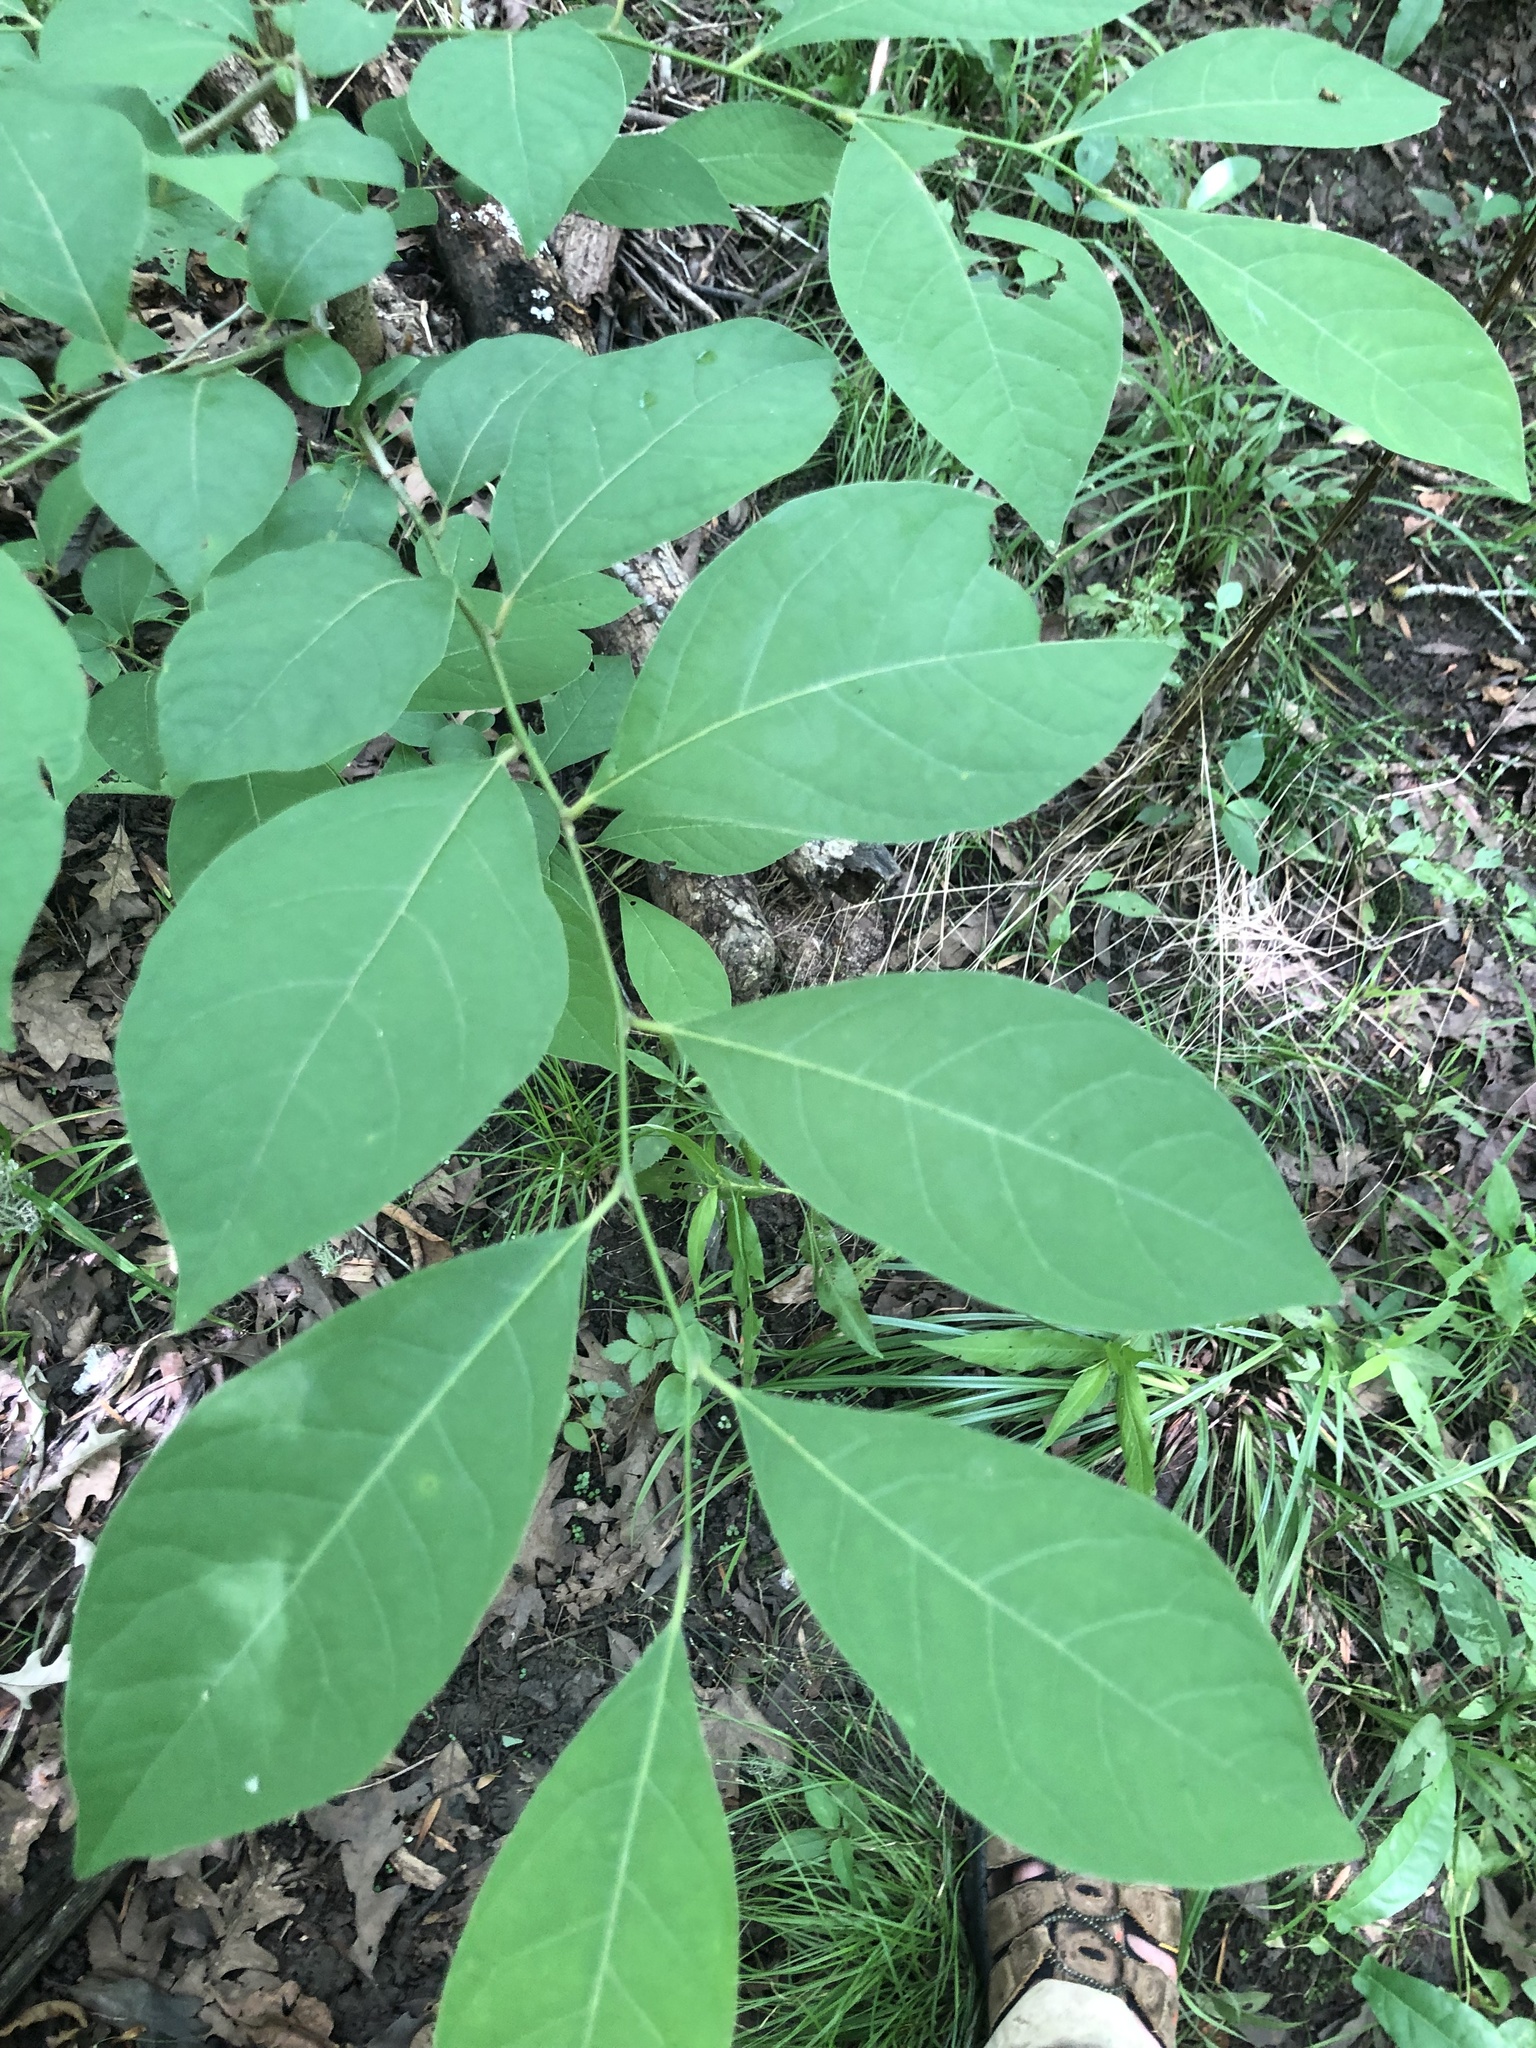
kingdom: Plantae
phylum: Tracheophyta
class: Magnoliopsida
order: Laurales
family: Lauraceae
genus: Lindera
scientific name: Lindera benzoin
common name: Spicebush
